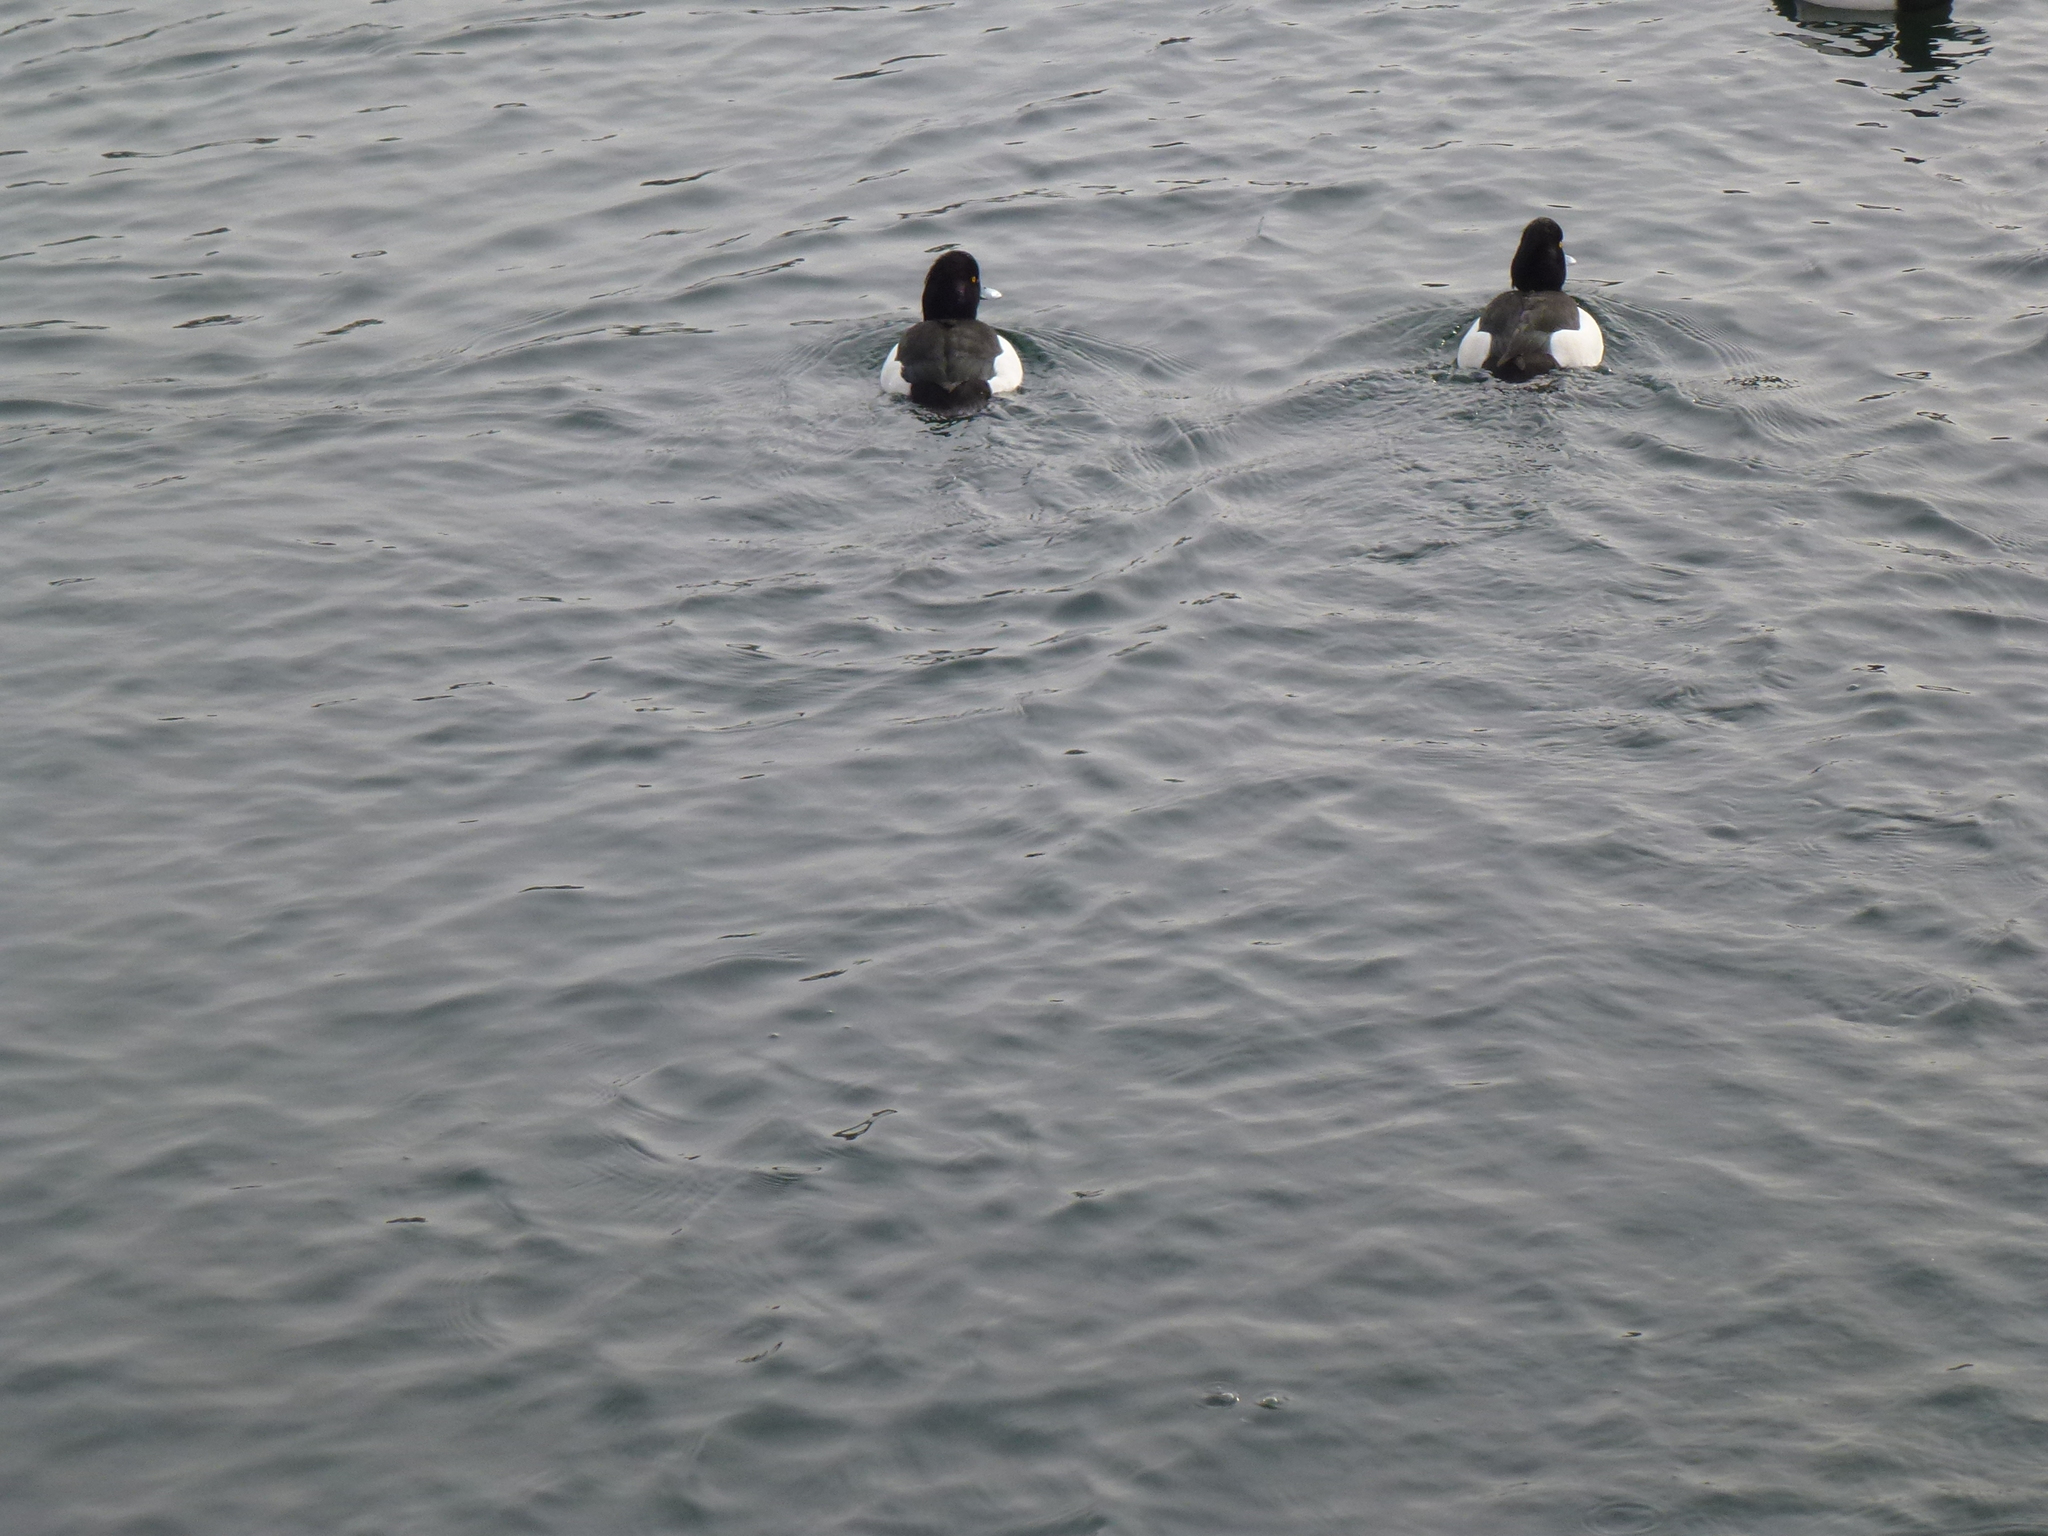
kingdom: Animalia
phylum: Chordata
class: Aves
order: Anseriformes
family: Anatidae
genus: Aythya
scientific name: Aythya fuligula
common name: Tufted duck
